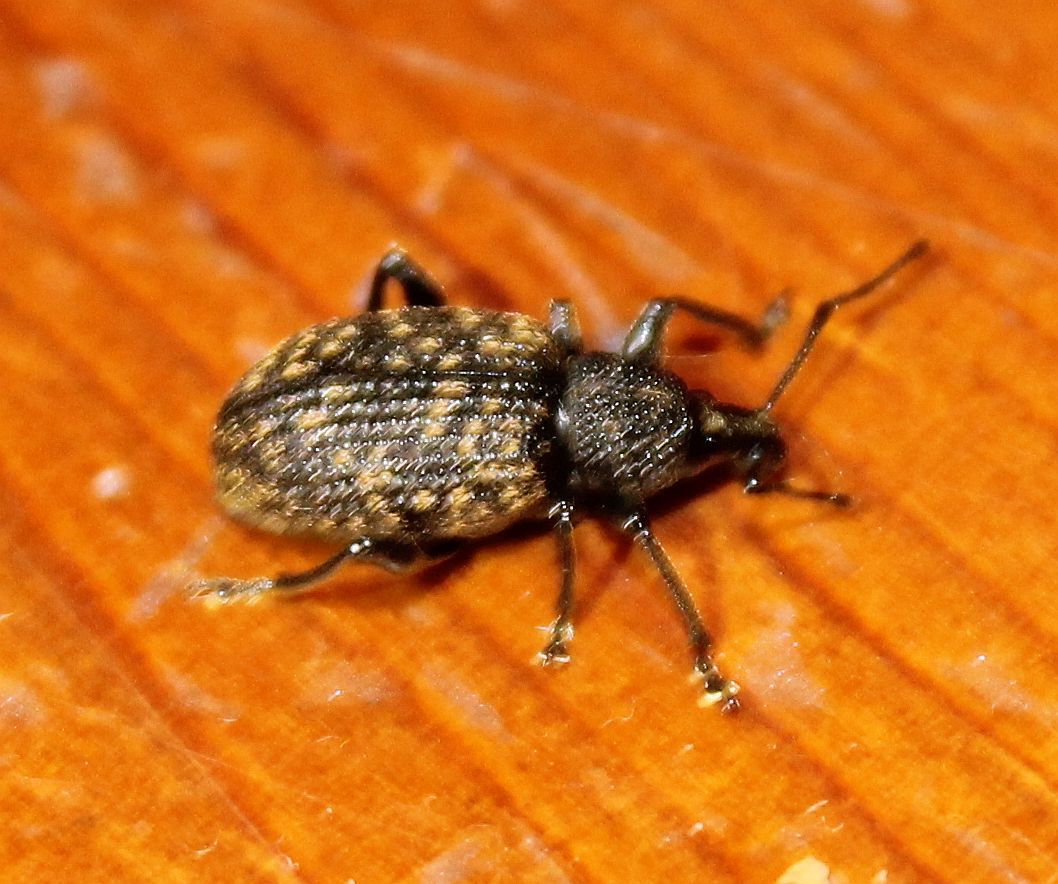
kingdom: Animalia
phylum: Arthropoda
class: Insecta
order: Coleoptera
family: Curculionidae
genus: Otiorhynchus
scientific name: Otiorhynchus sulcatus
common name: Black vine weevil
